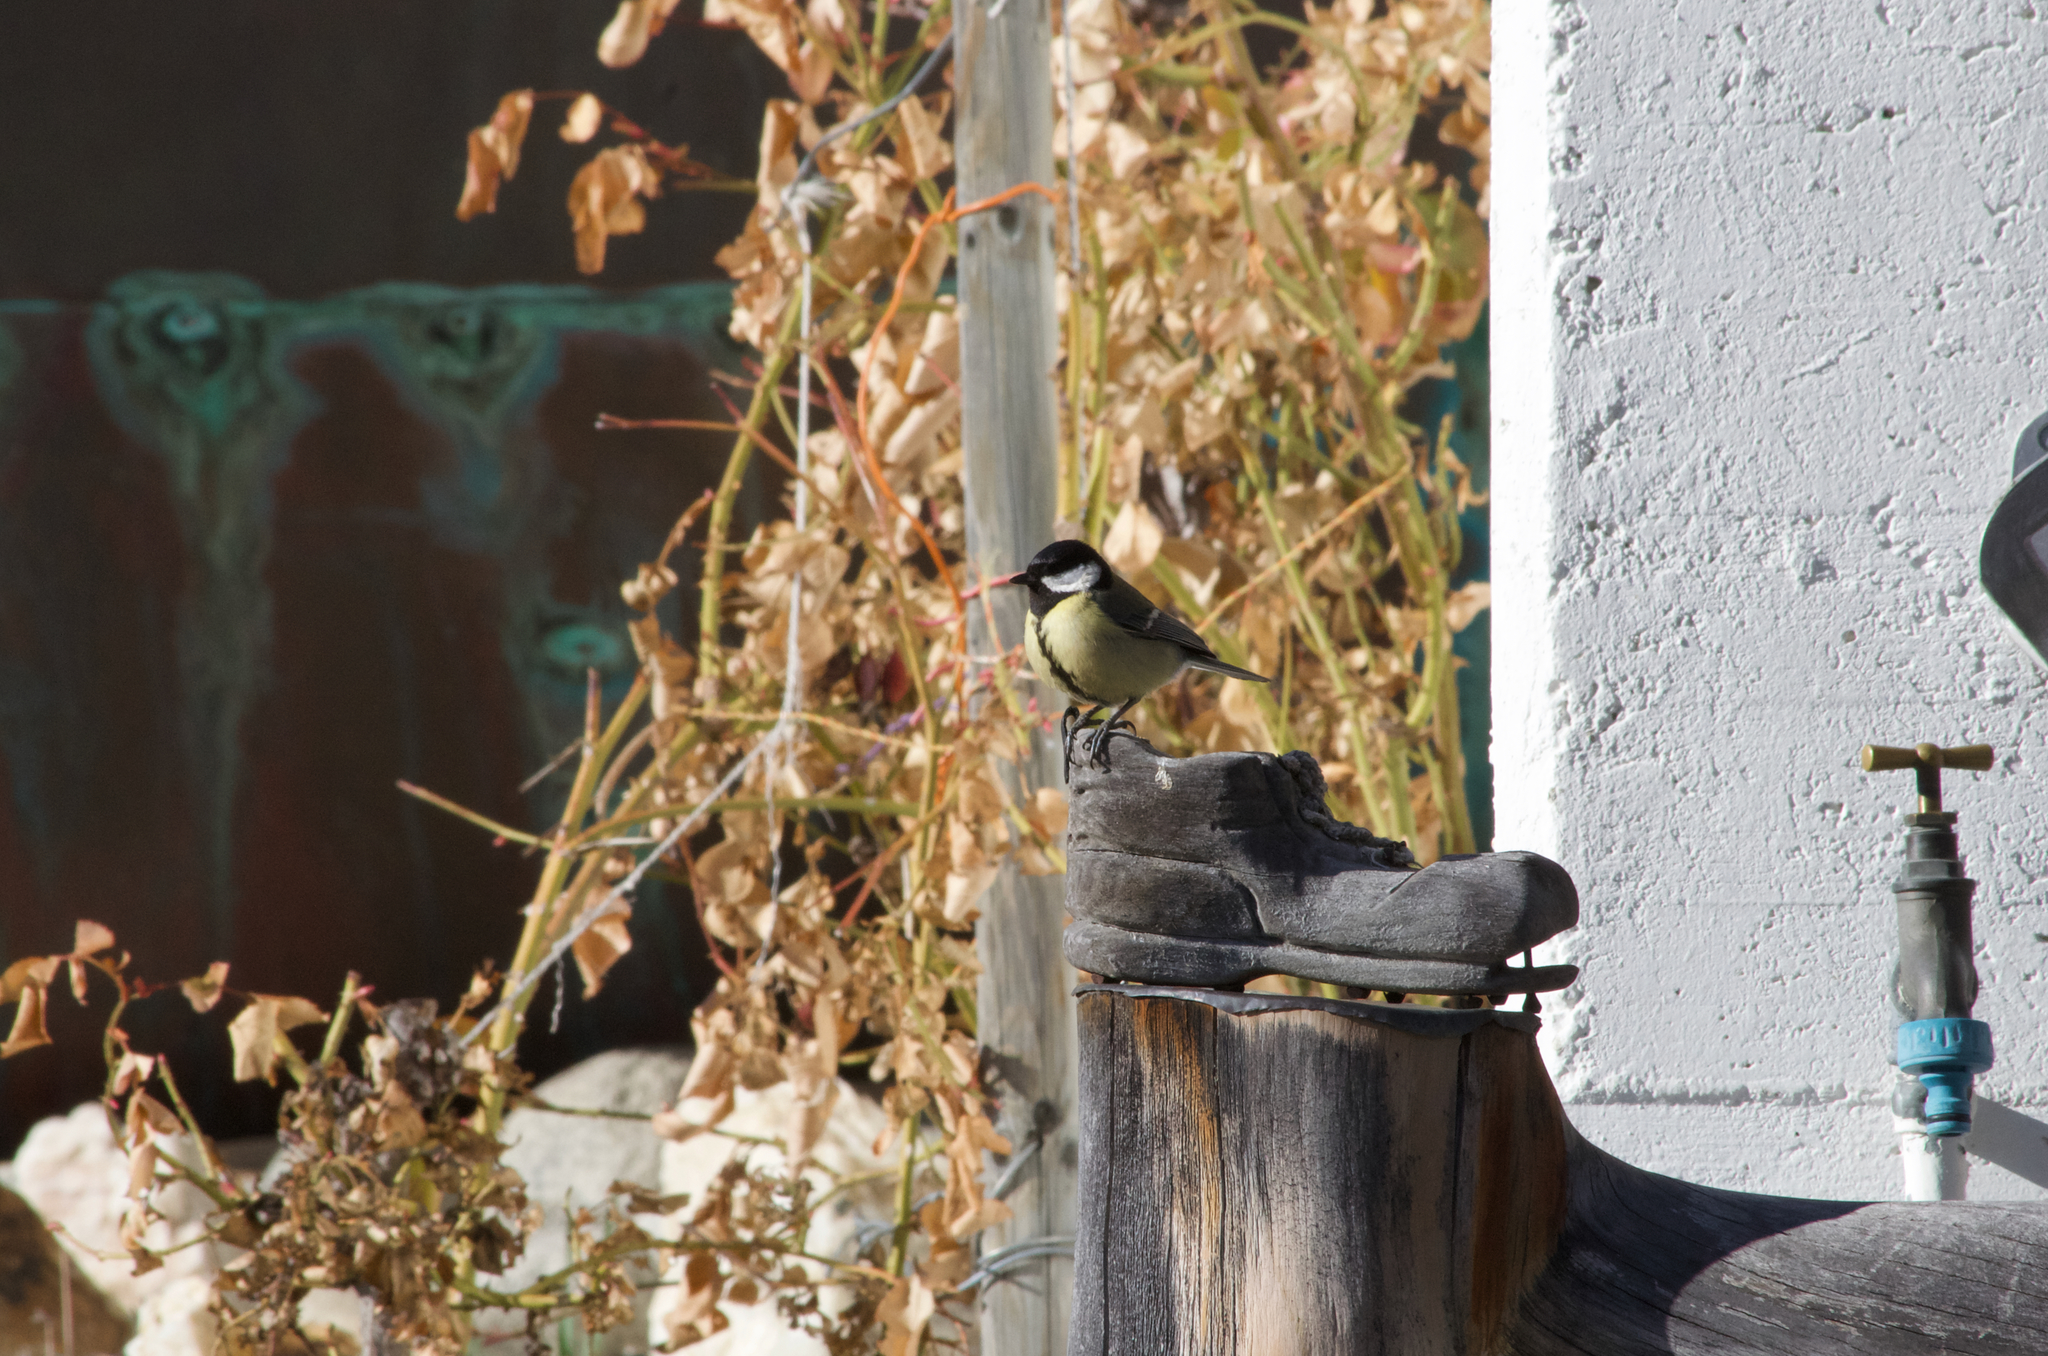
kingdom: Animalia
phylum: Chordata
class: Aves
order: Passeriformes
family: Paridae
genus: Parus
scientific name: Parus major
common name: Great tit
